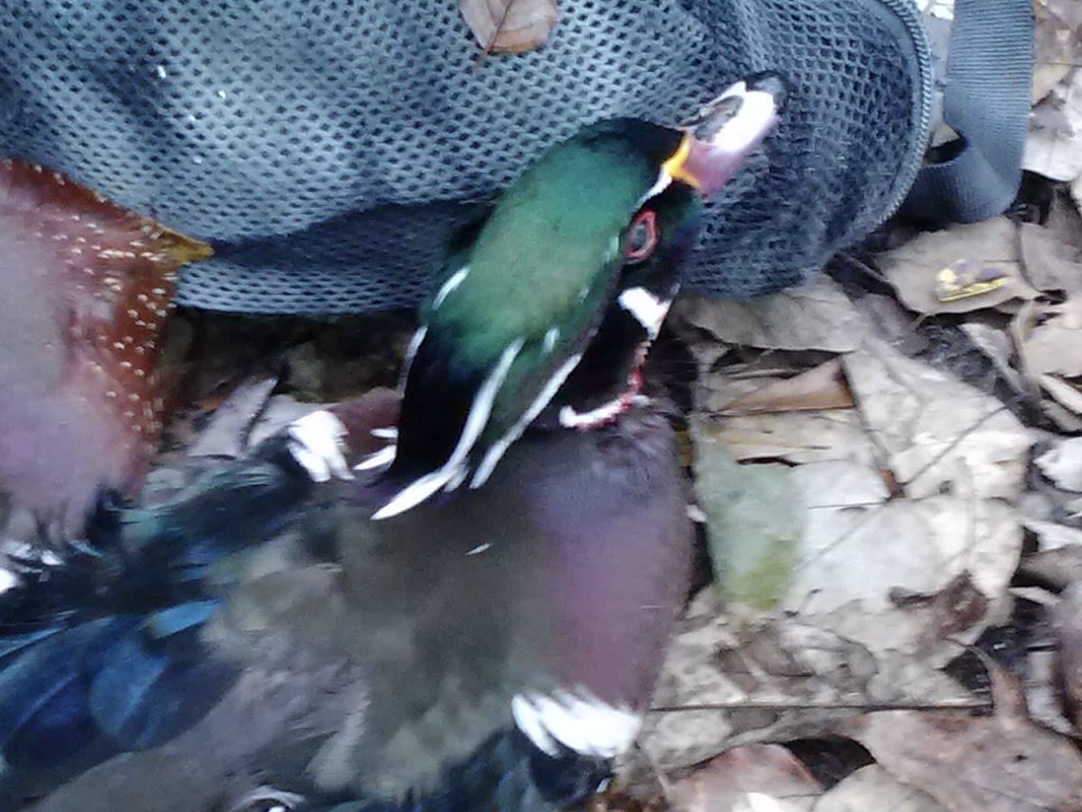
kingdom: Animalia
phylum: Chordata
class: Aves
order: Anseriformes
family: Anatidae
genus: Aix
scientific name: Aix sponsa
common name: Wood duck
